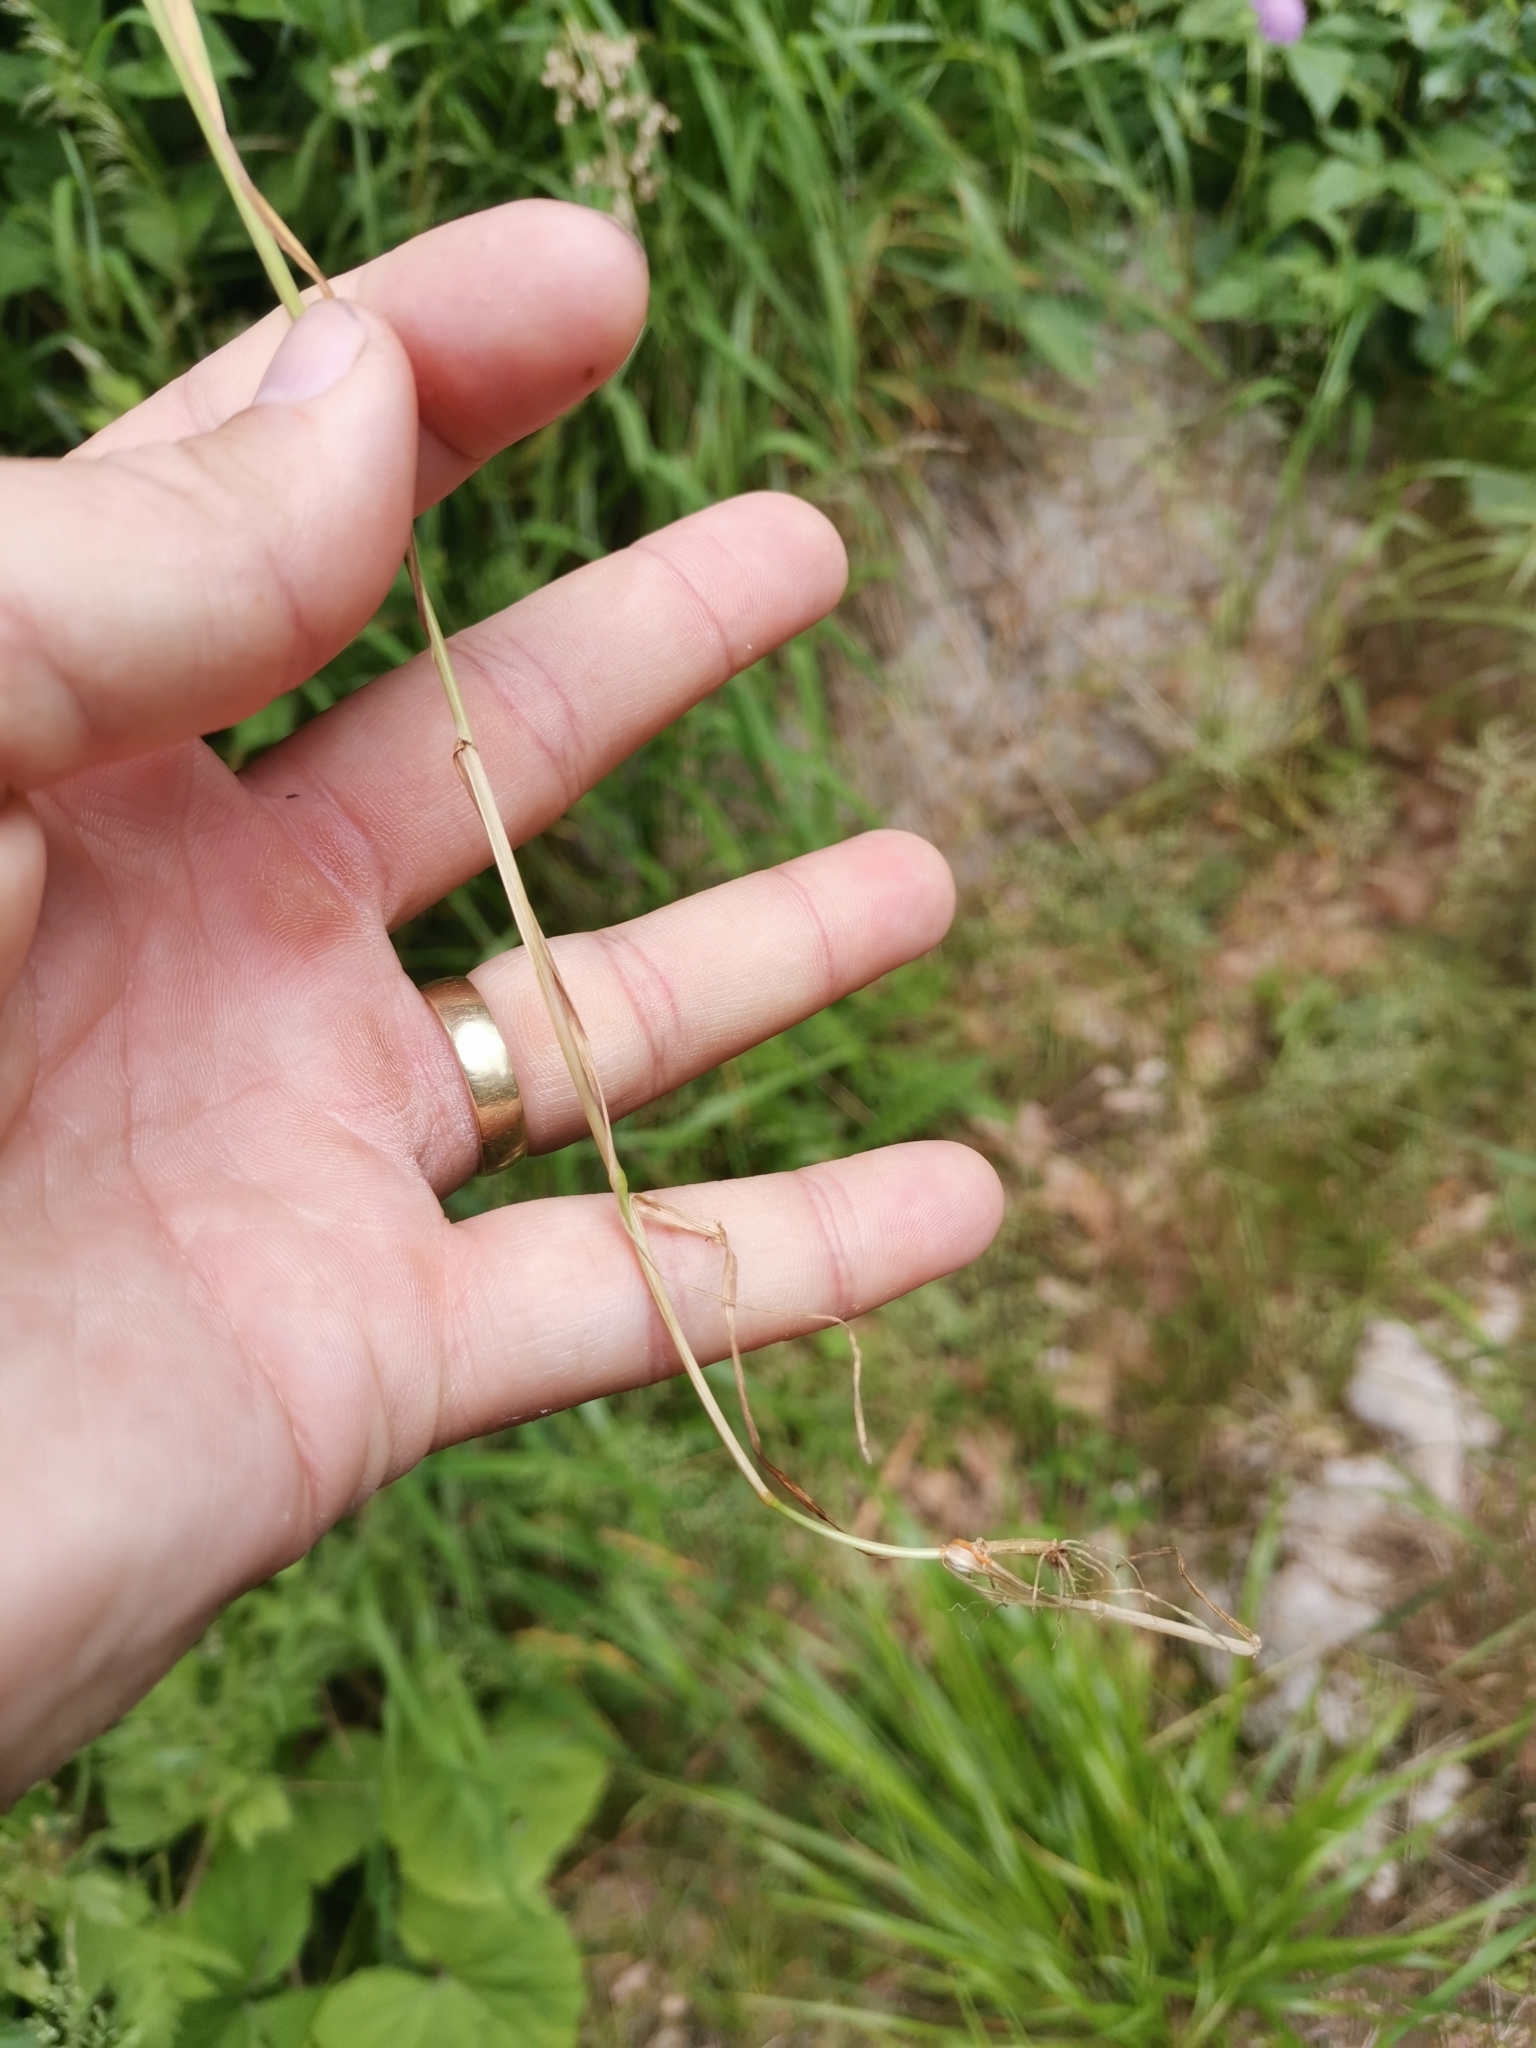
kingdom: Plantae
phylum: Tracheophyta
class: Liliopsida
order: Poales
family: Poaceae
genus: Poa
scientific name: Poa pratensis
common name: Kentucky bluegrass
